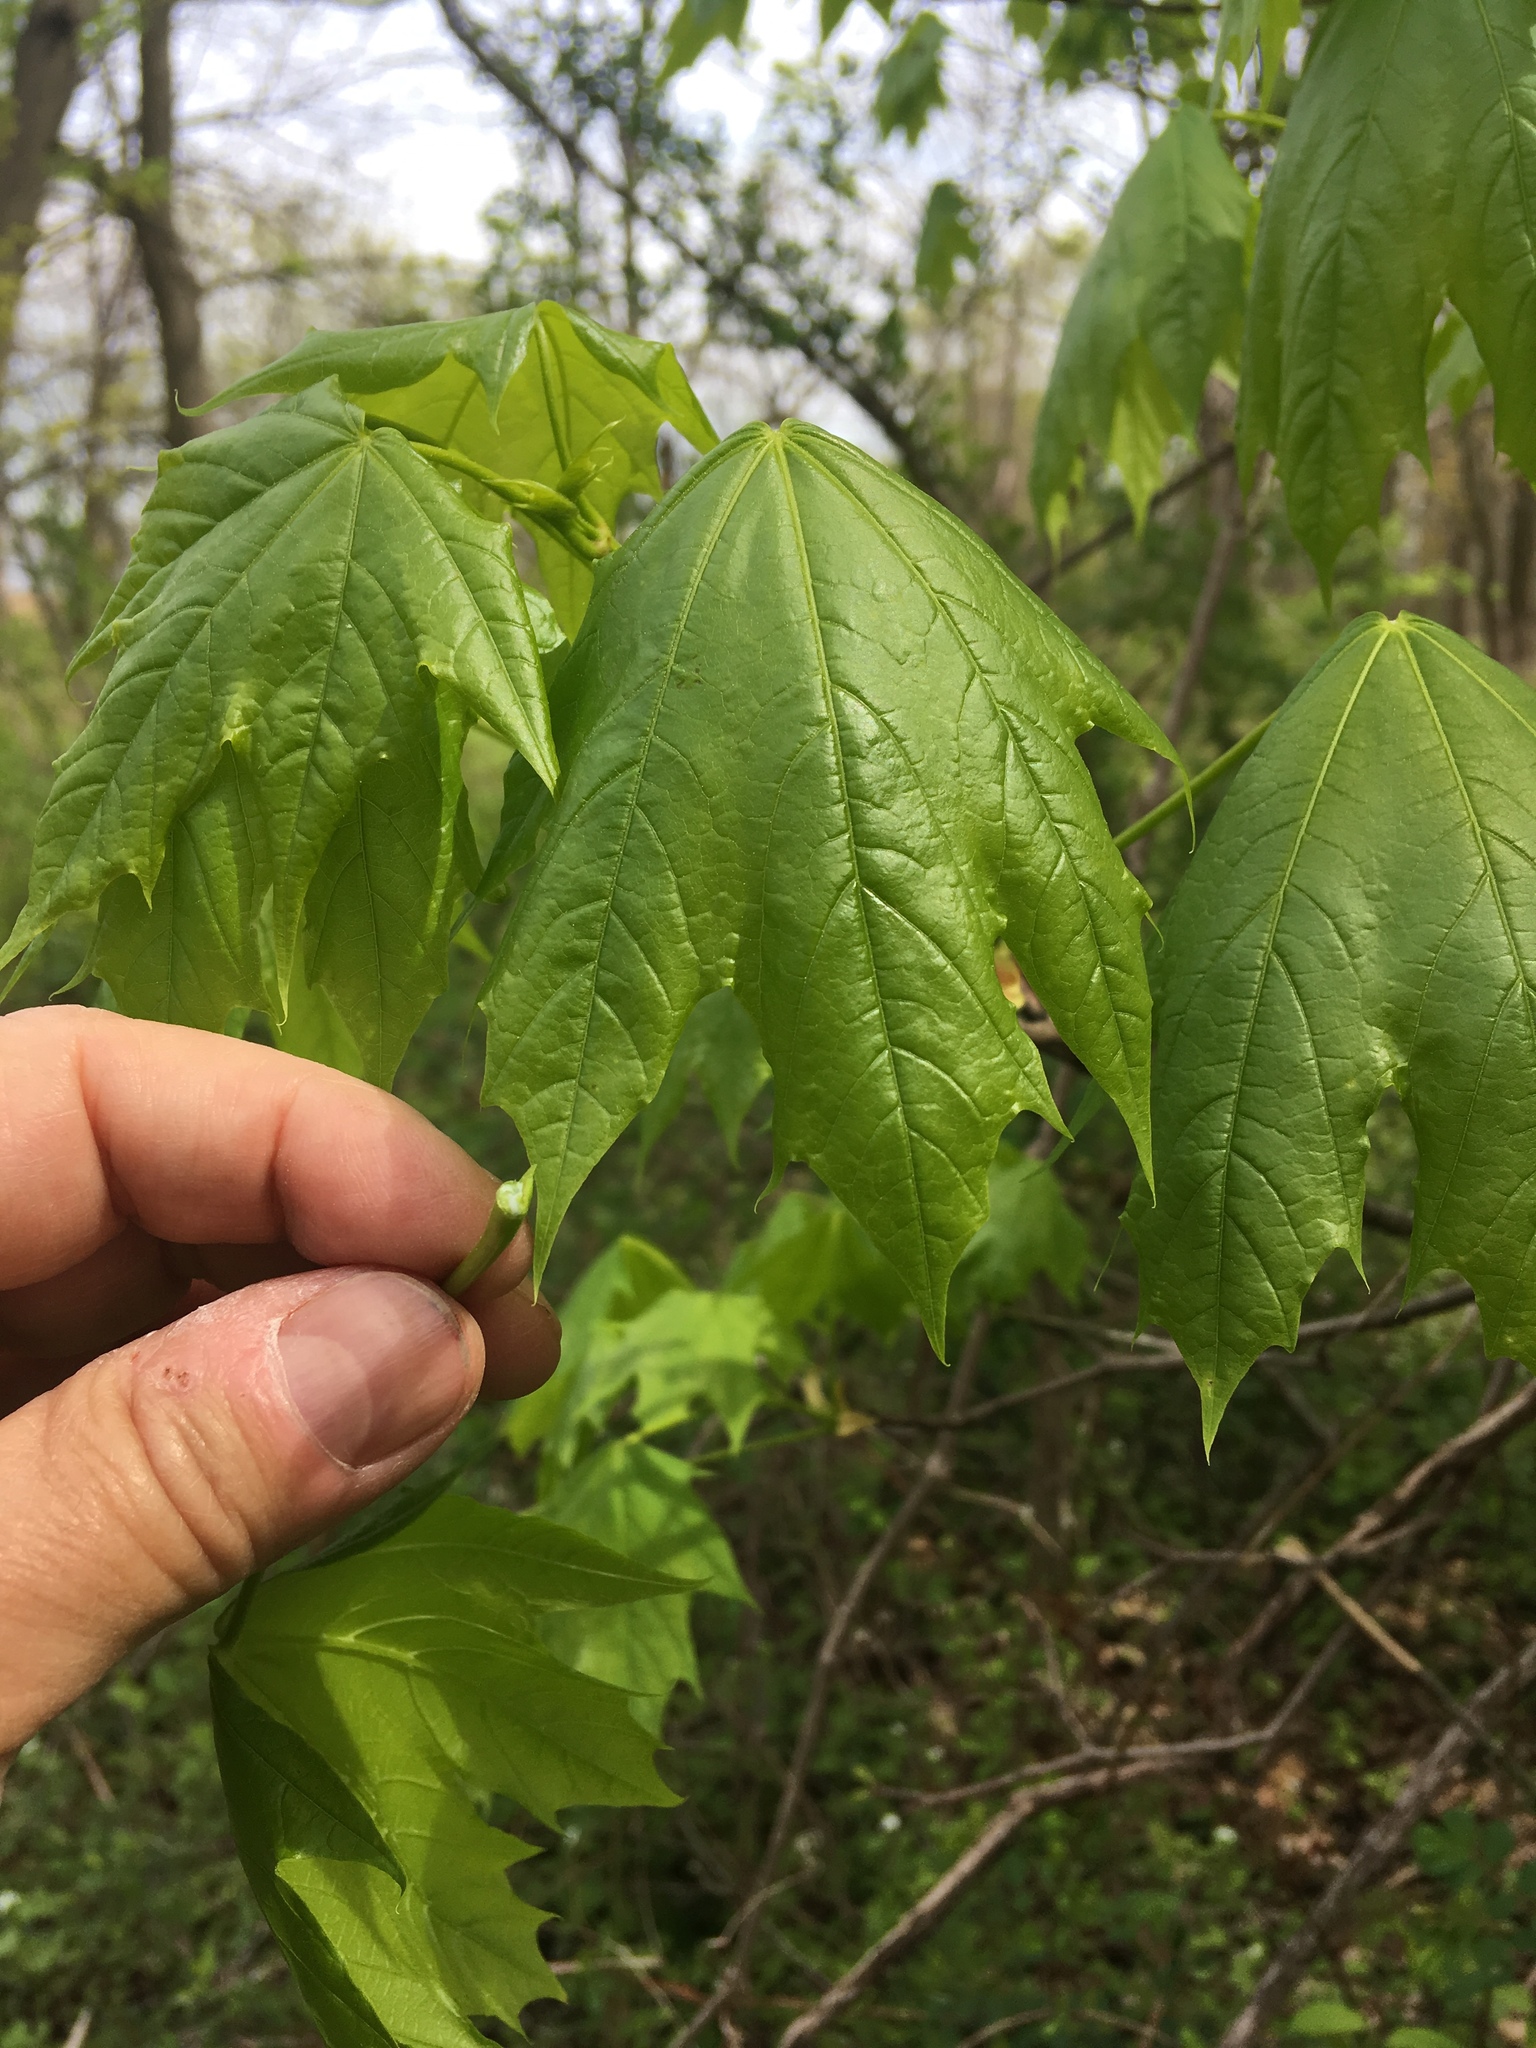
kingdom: Plantae
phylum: Tracheophyta
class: Magnoliopsida
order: Sapindales
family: Sapindaceae
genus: Acer
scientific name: Acer platanoides
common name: Norway maple
